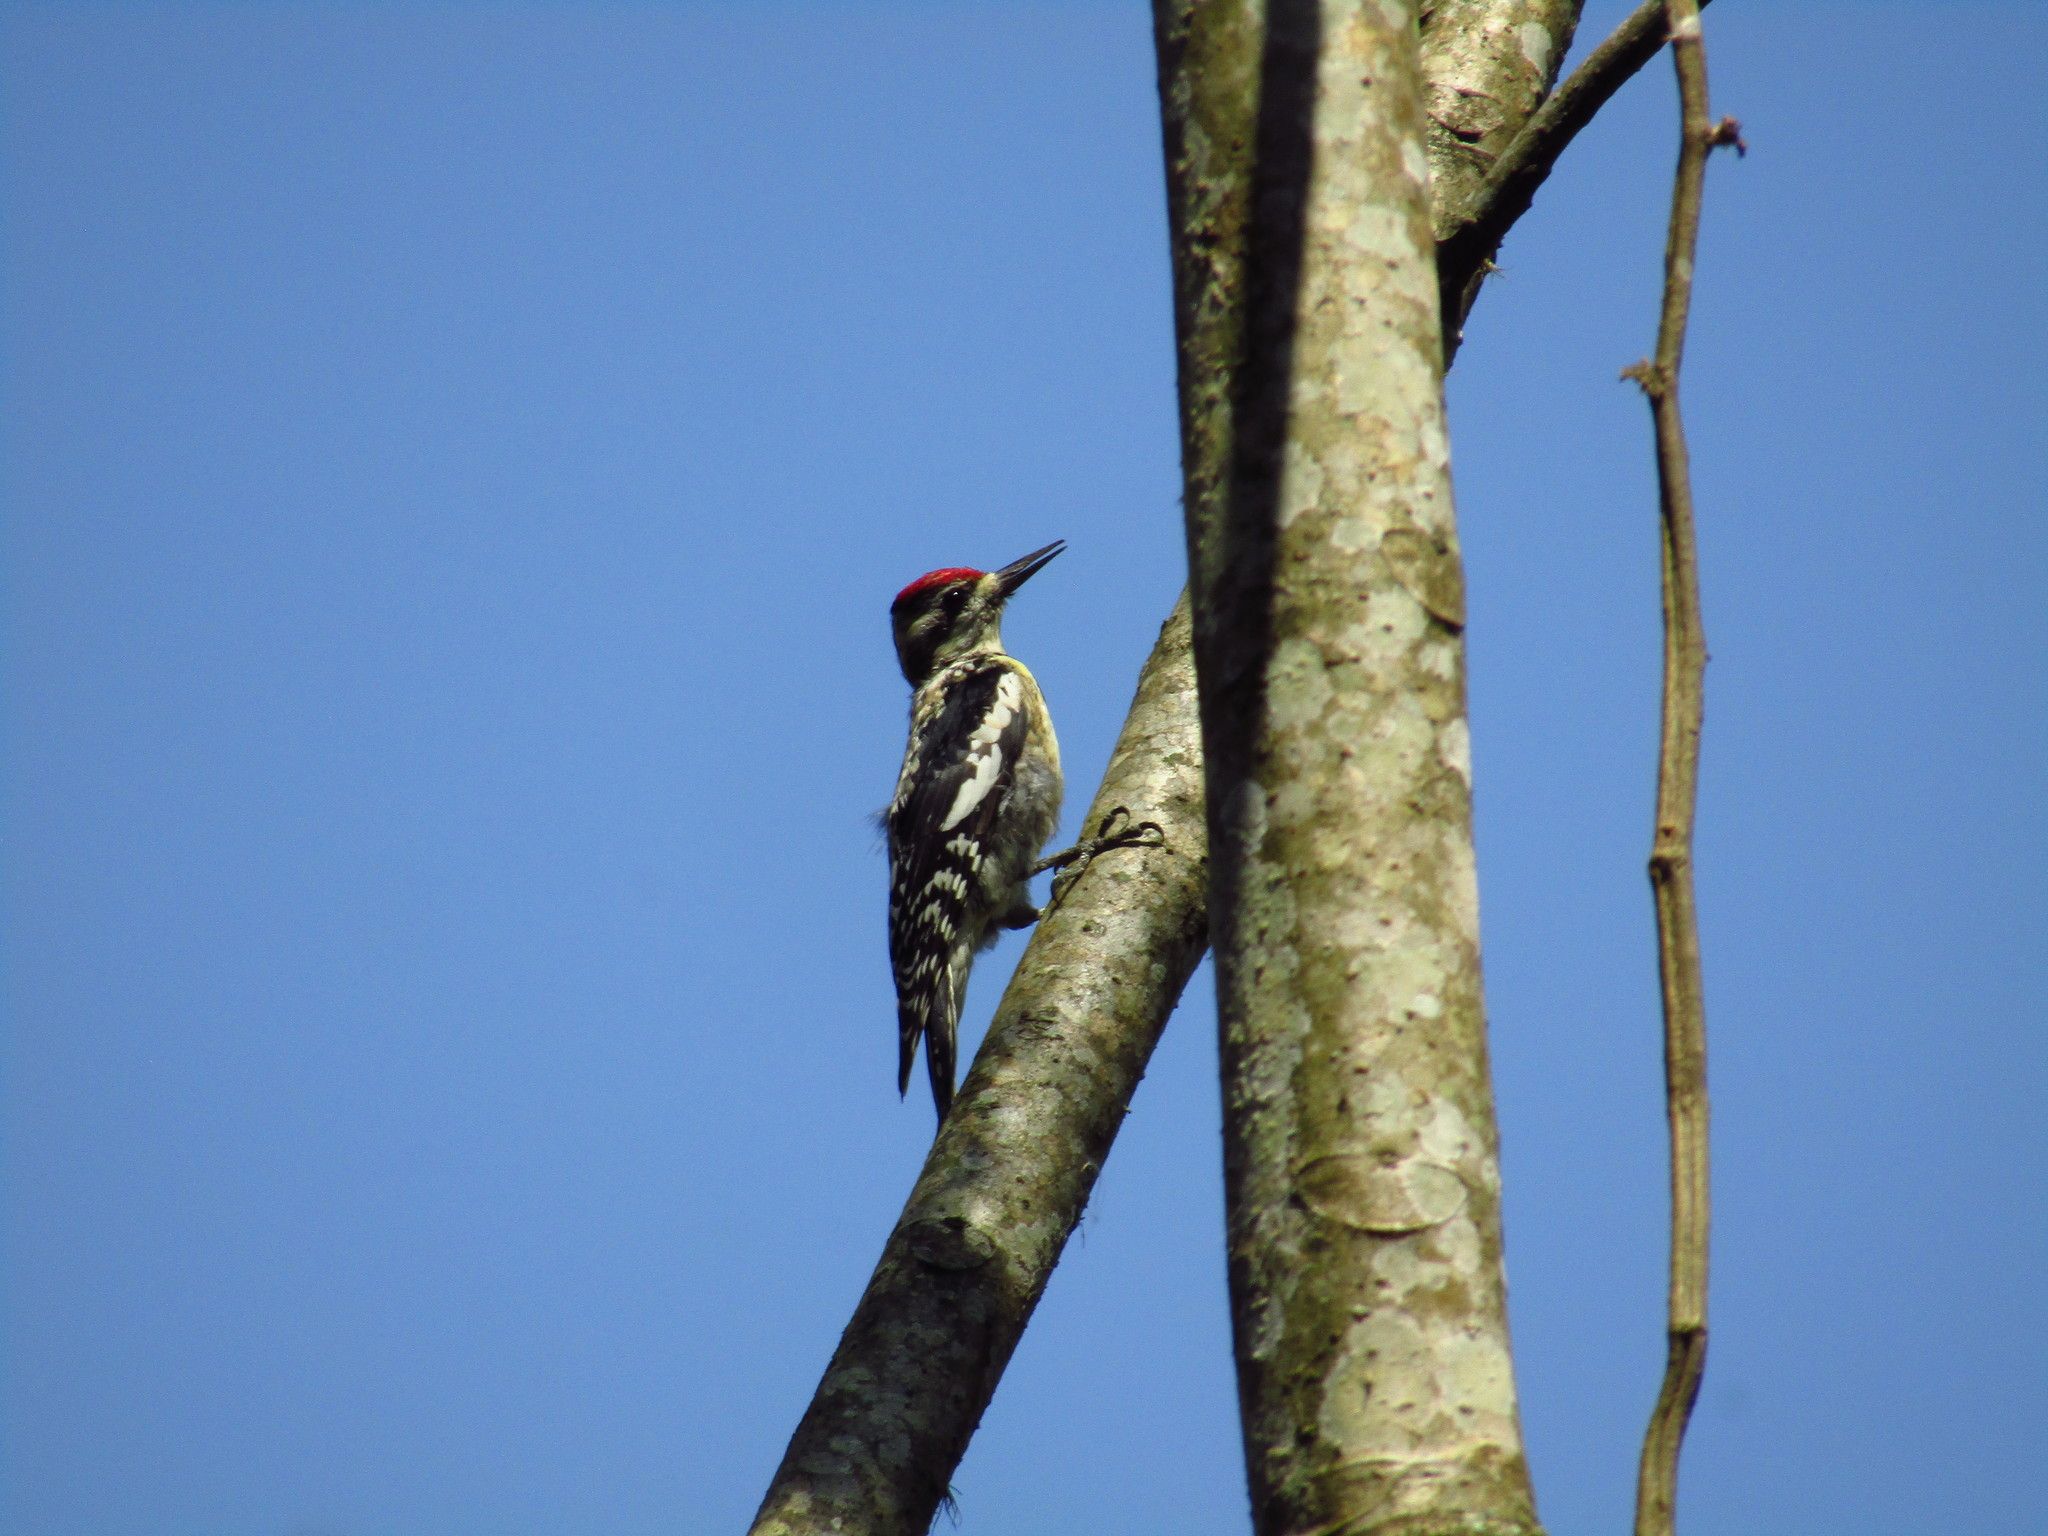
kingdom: Animalia
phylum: Chordata
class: Aves
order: Piciformes
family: Picidae
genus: Sphyrapicus
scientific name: Sphyrapicus varius
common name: Yellow-bellied sapsucker
